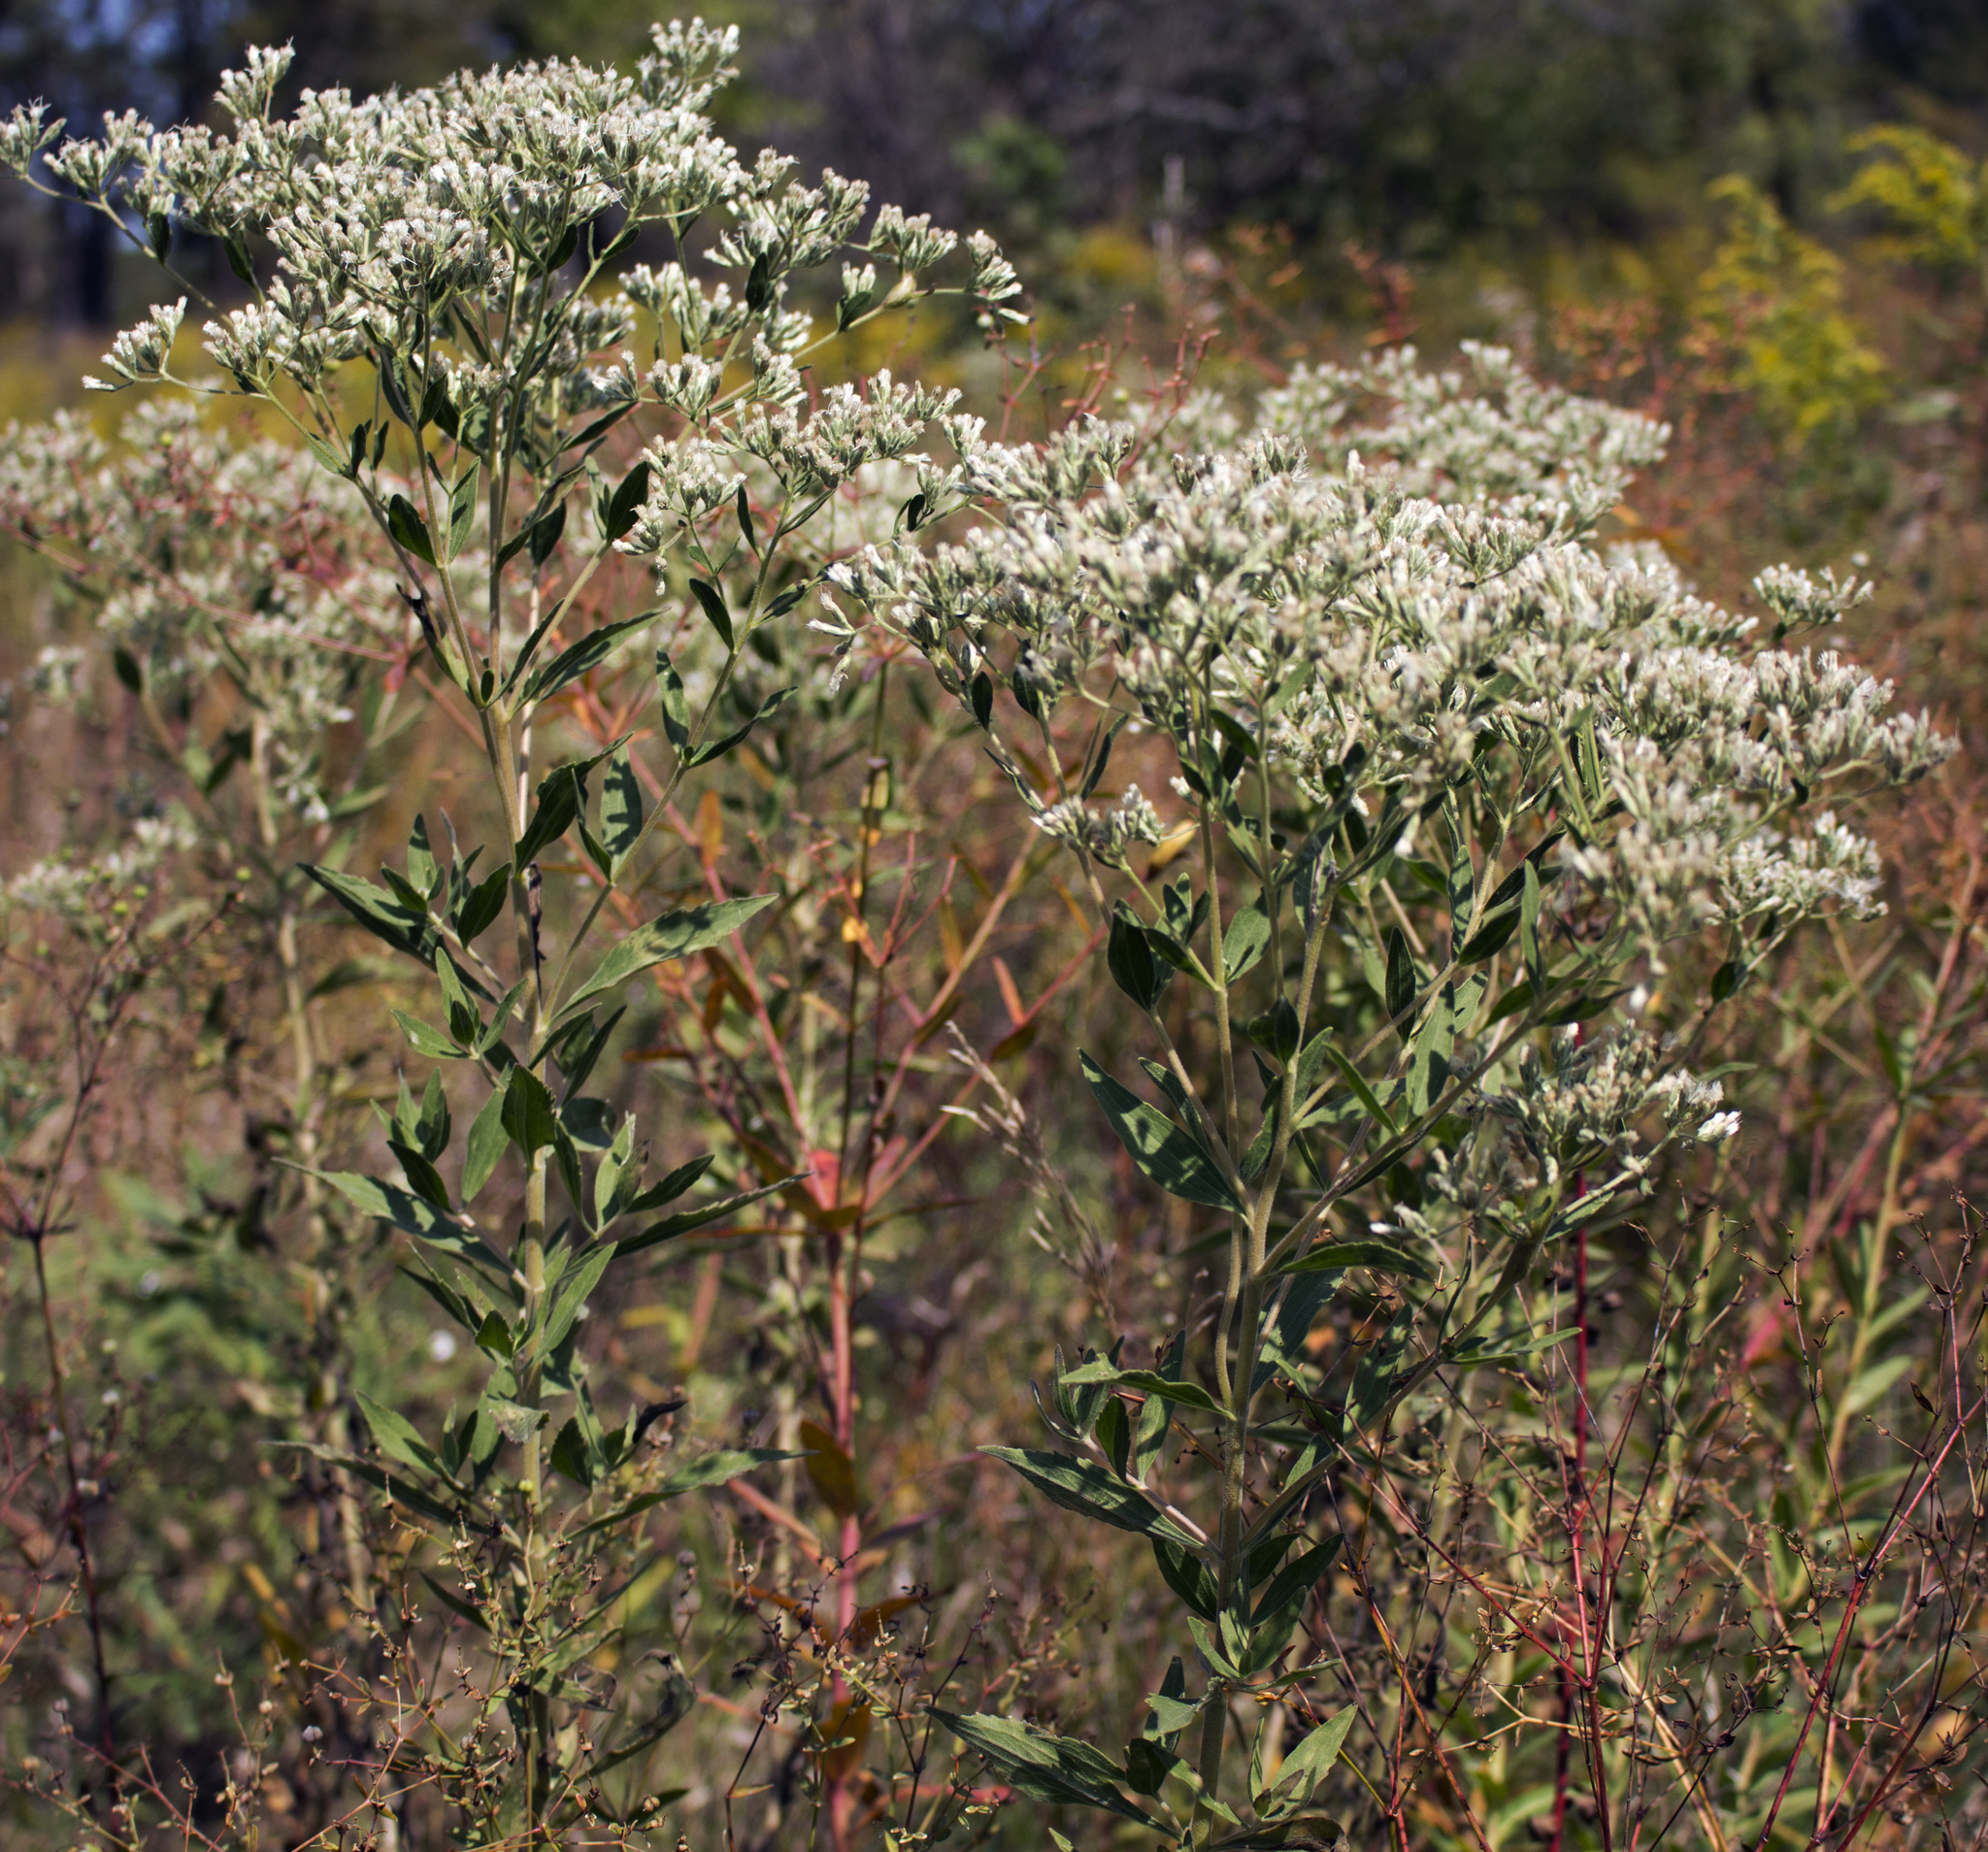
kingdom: Plantae
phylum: Tracheophyta
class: Magnoliopsida
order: Asterales
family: Asteraceae
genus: Eupatorium
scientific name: Eupatorium altissimum
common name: Tall thoroughwort
